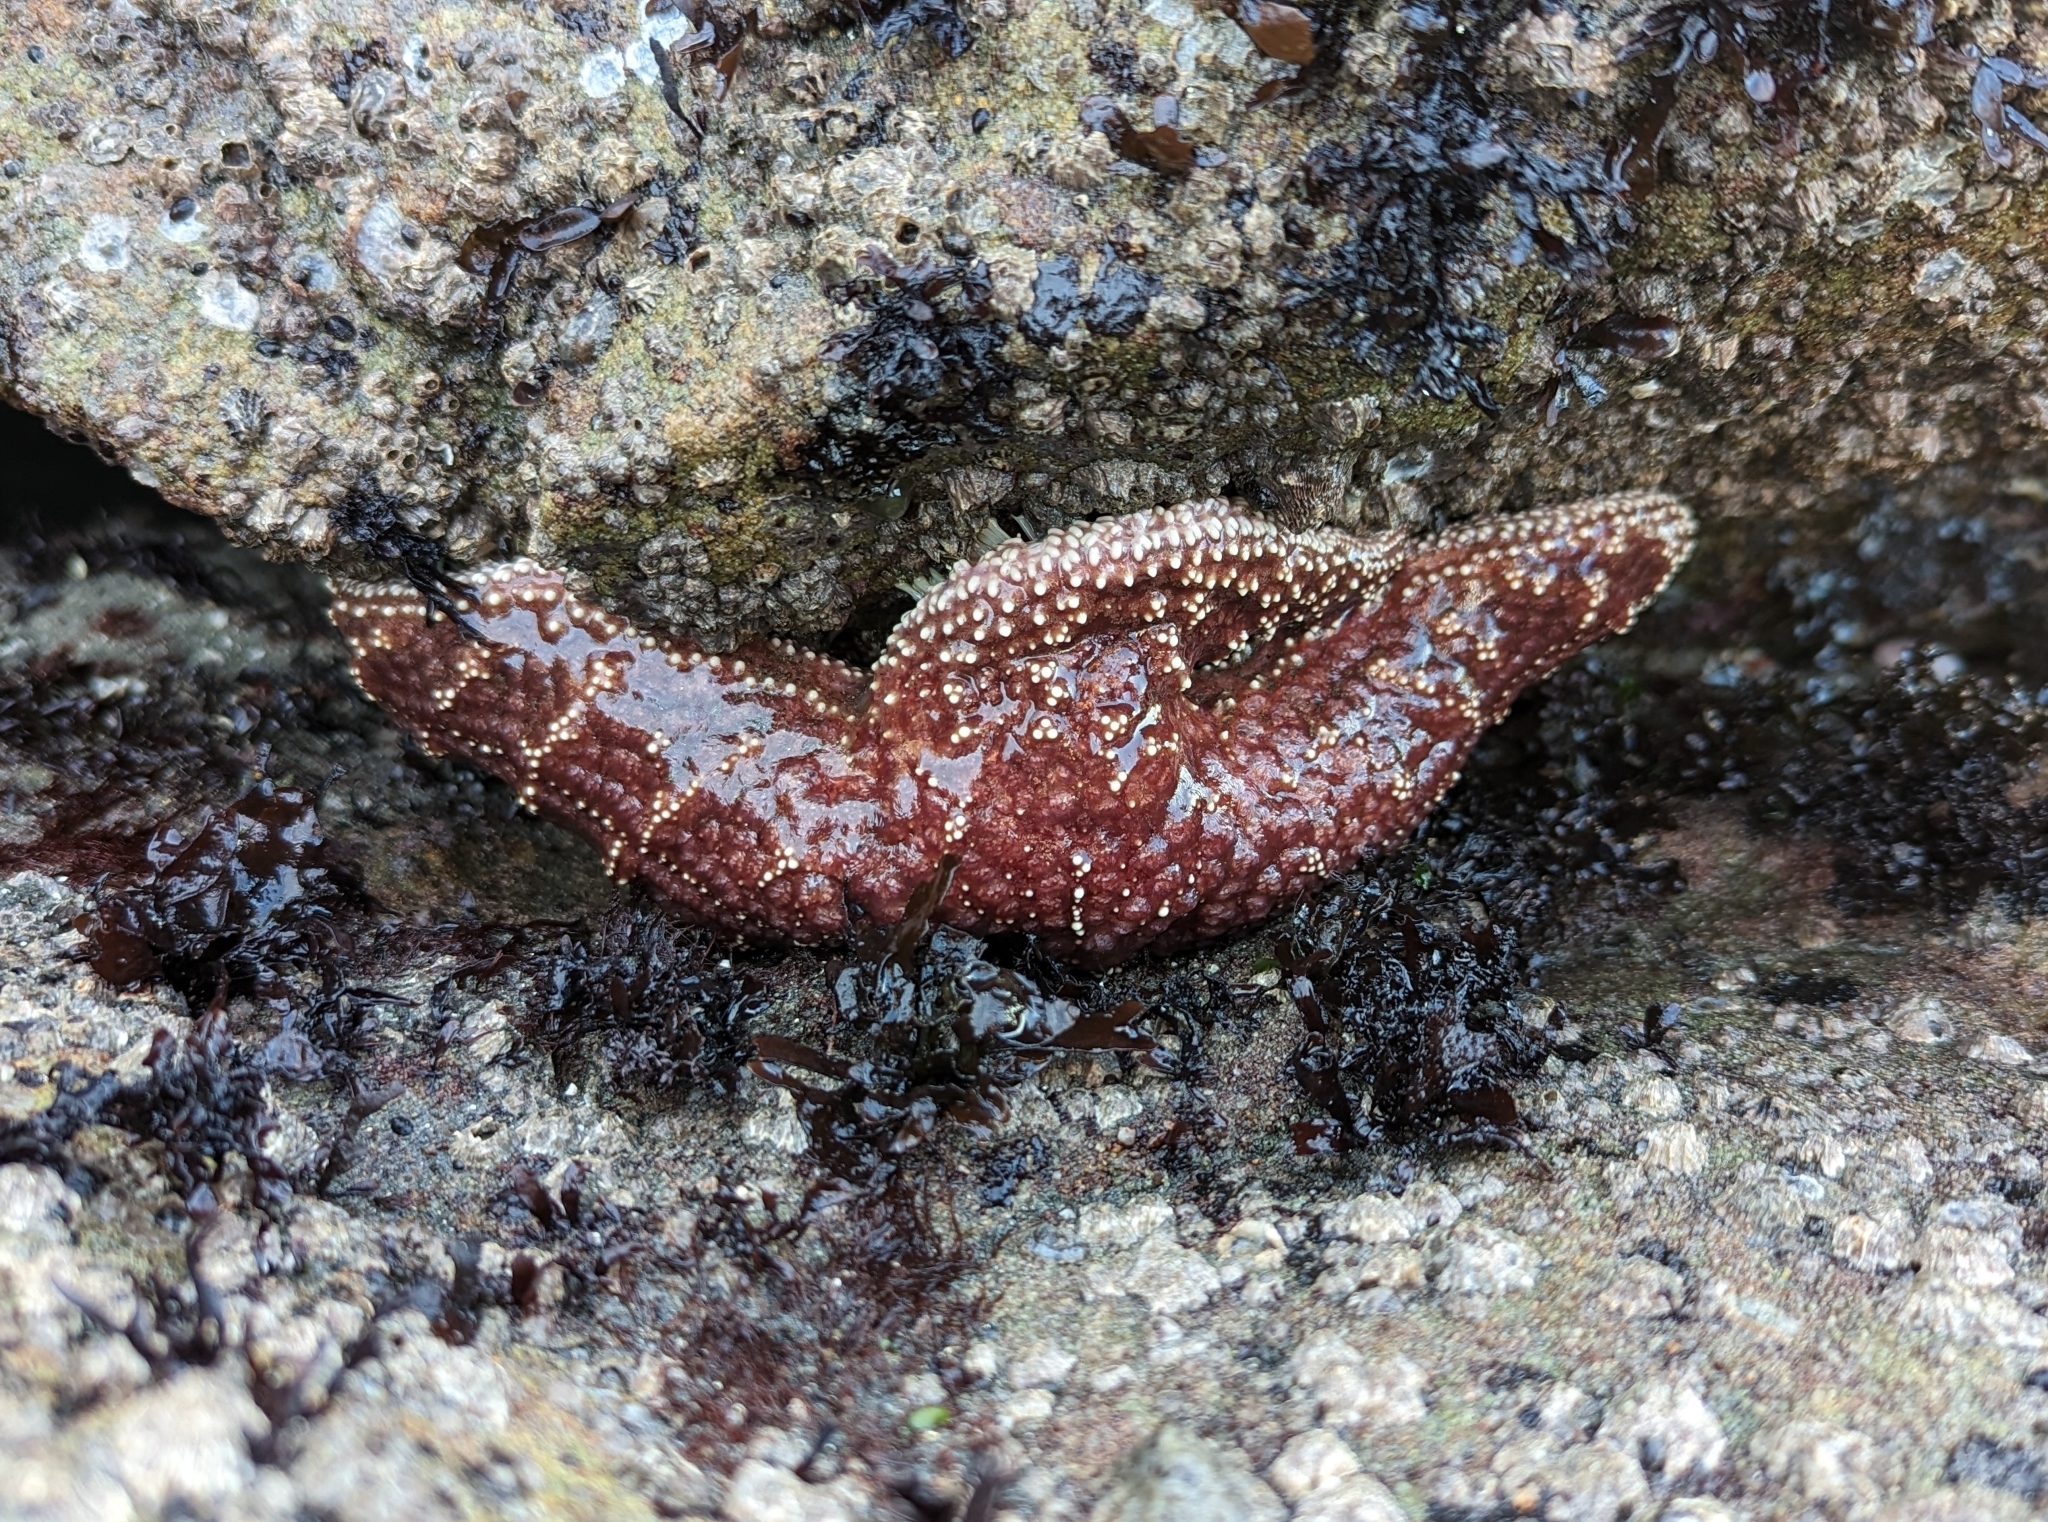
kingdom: Animalia
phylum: Echinodermata
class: Asteroidea
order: Forcipulatida
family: Asteriidae
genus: Pisaster
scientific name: Pisaster ochraceus
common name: Ochre stars
